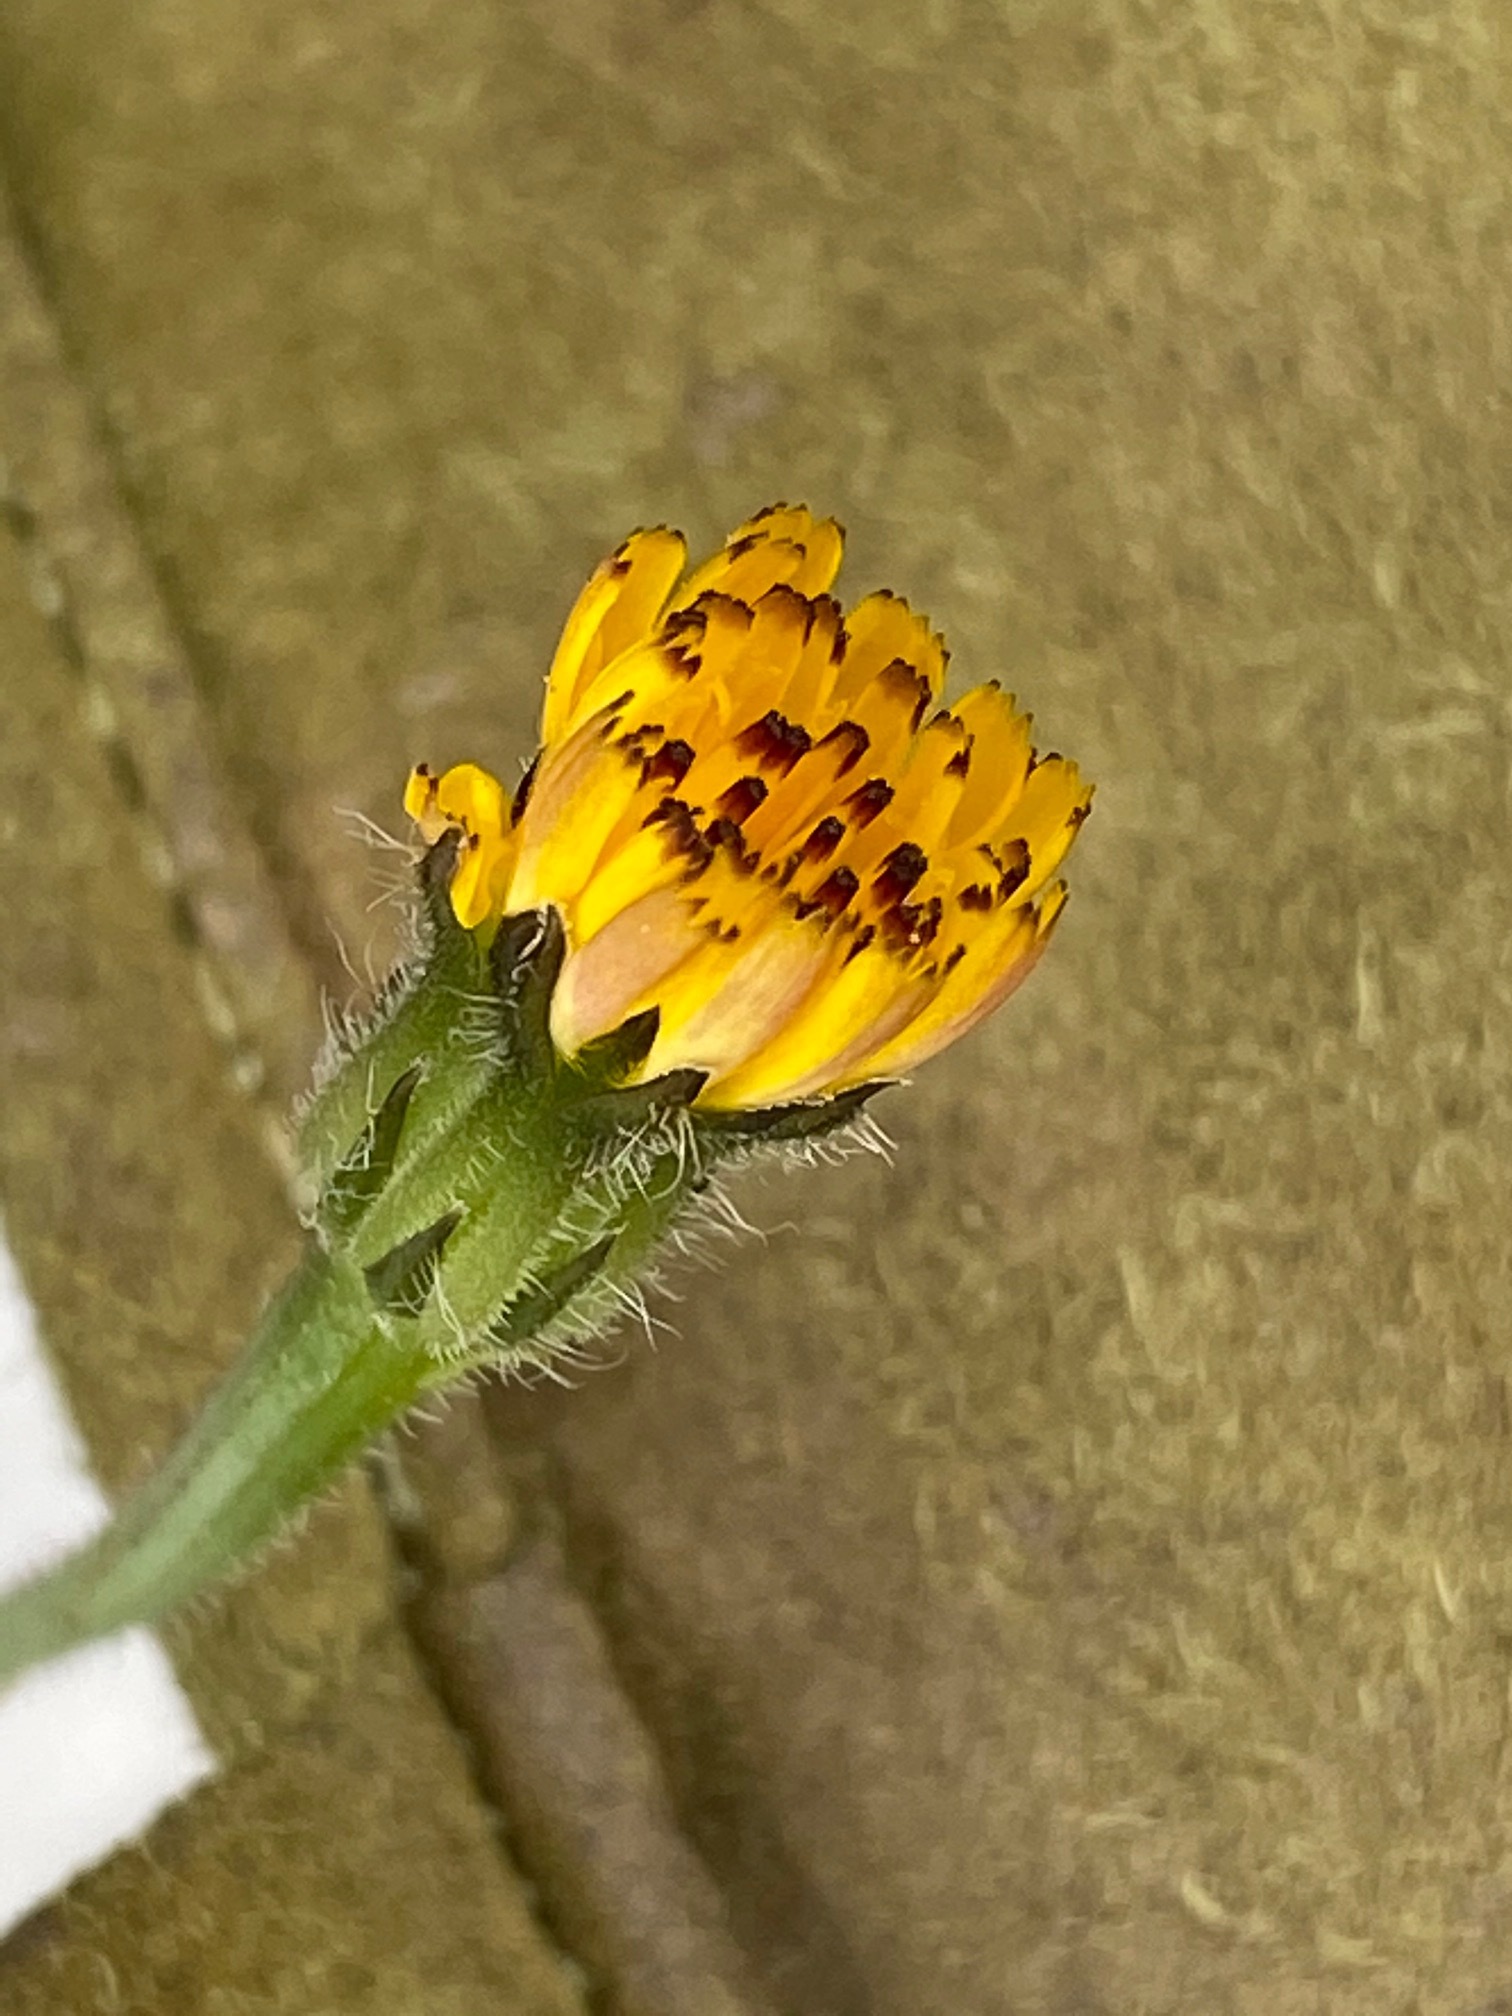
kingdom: Plantae
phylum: Tracheophyta
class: Magnoliopsida
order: Asterales
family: Asteraceae
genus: Hedypnois
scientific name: Hedypnois rhagadioloides
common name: Cretan weed
